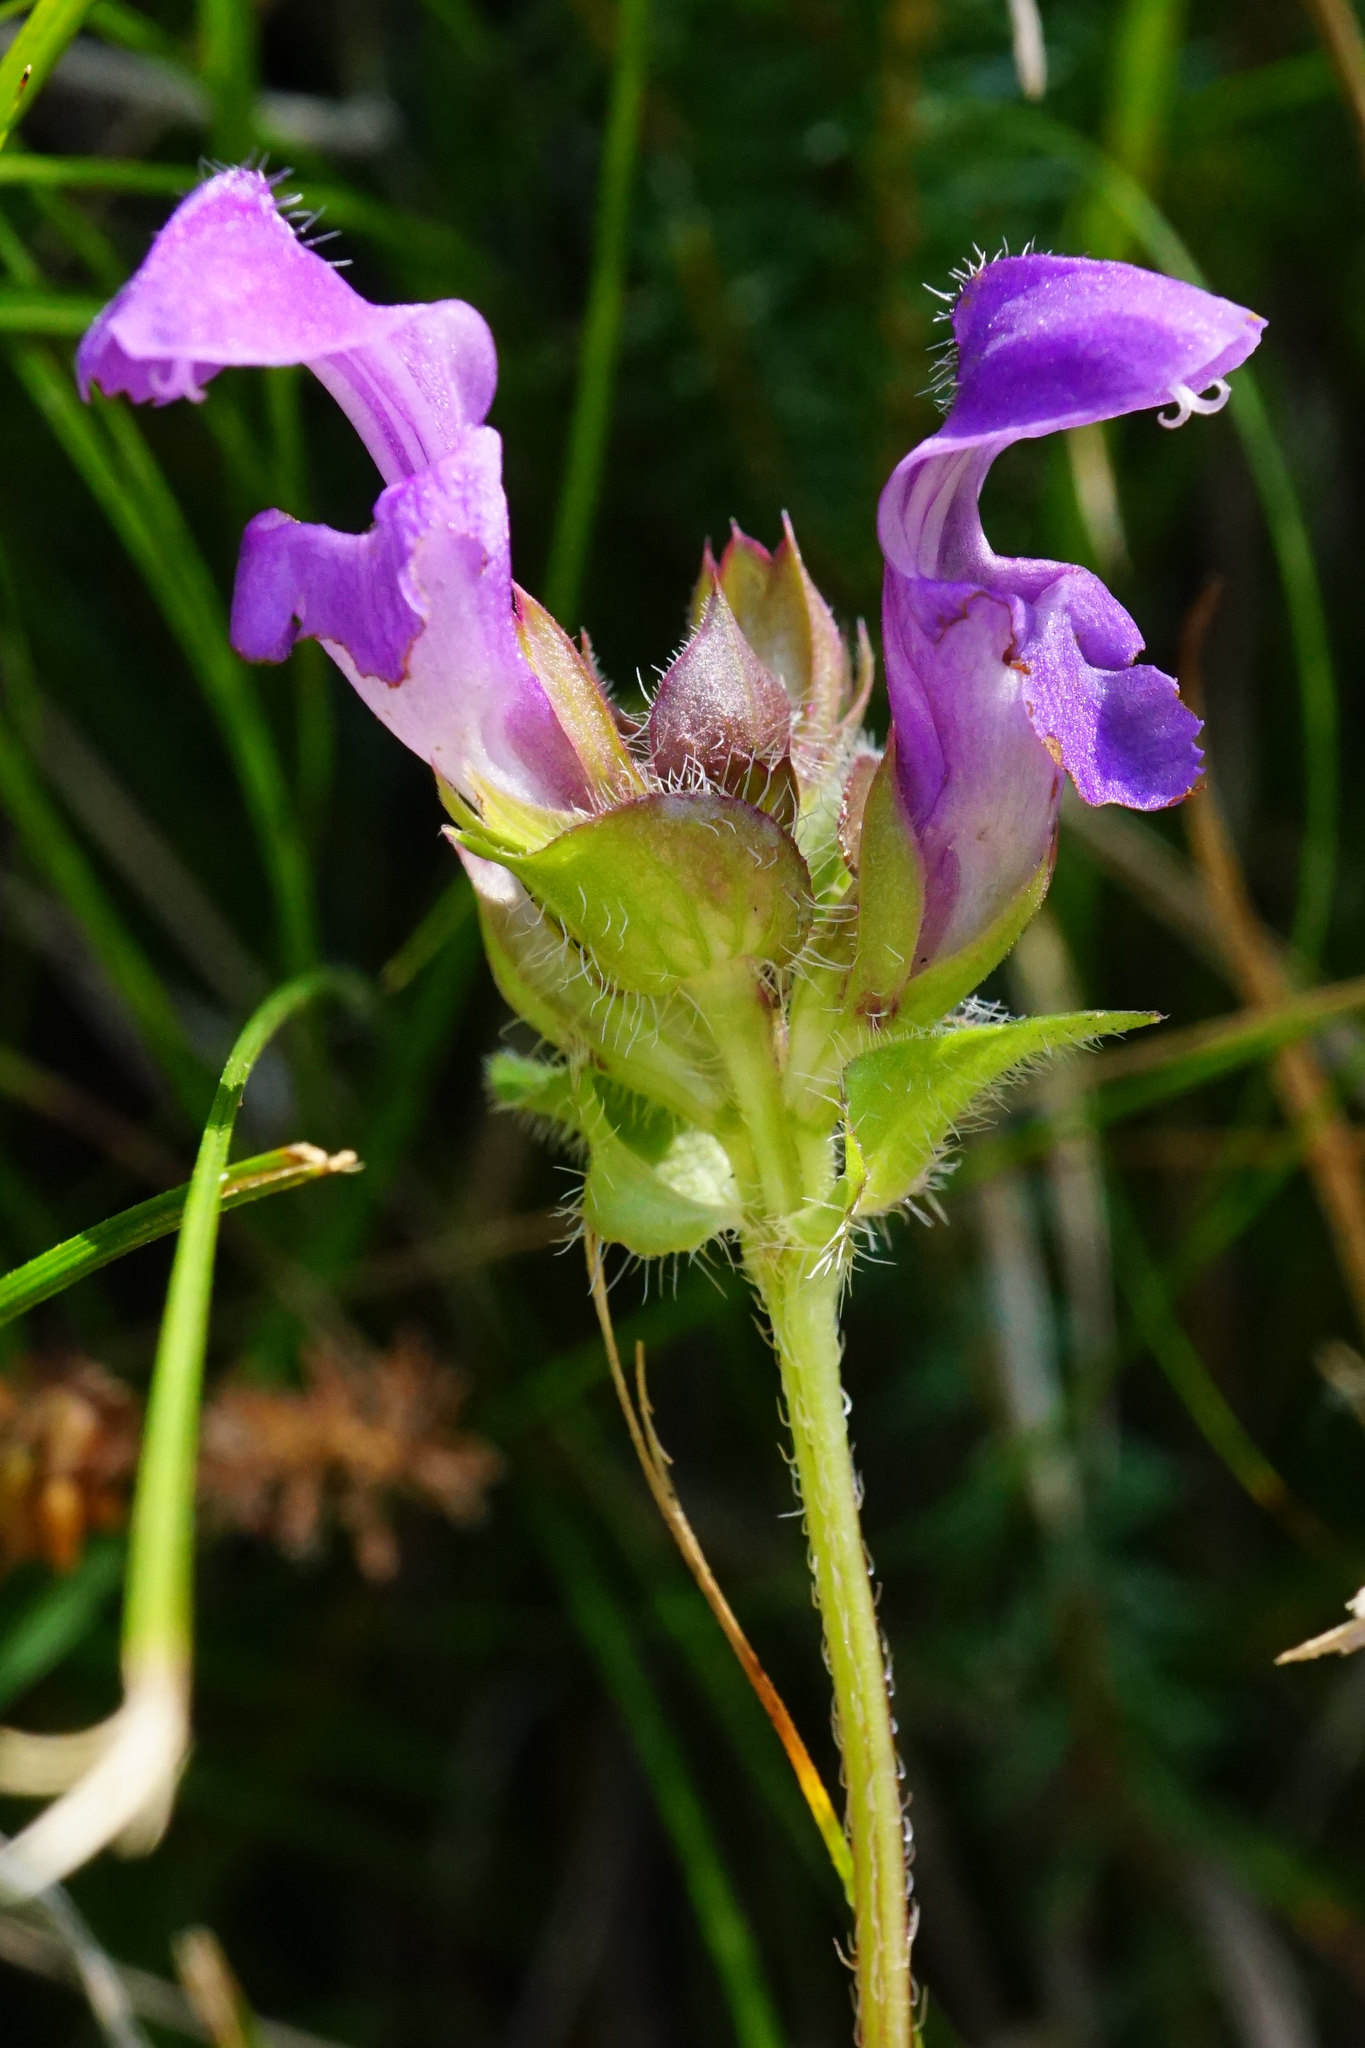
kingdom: Plantae
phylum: Tracheophyta
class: Magnoliopsida
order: Lamiales
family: Lamiaceae
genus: Prunella
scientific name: Prunella grandiflora
